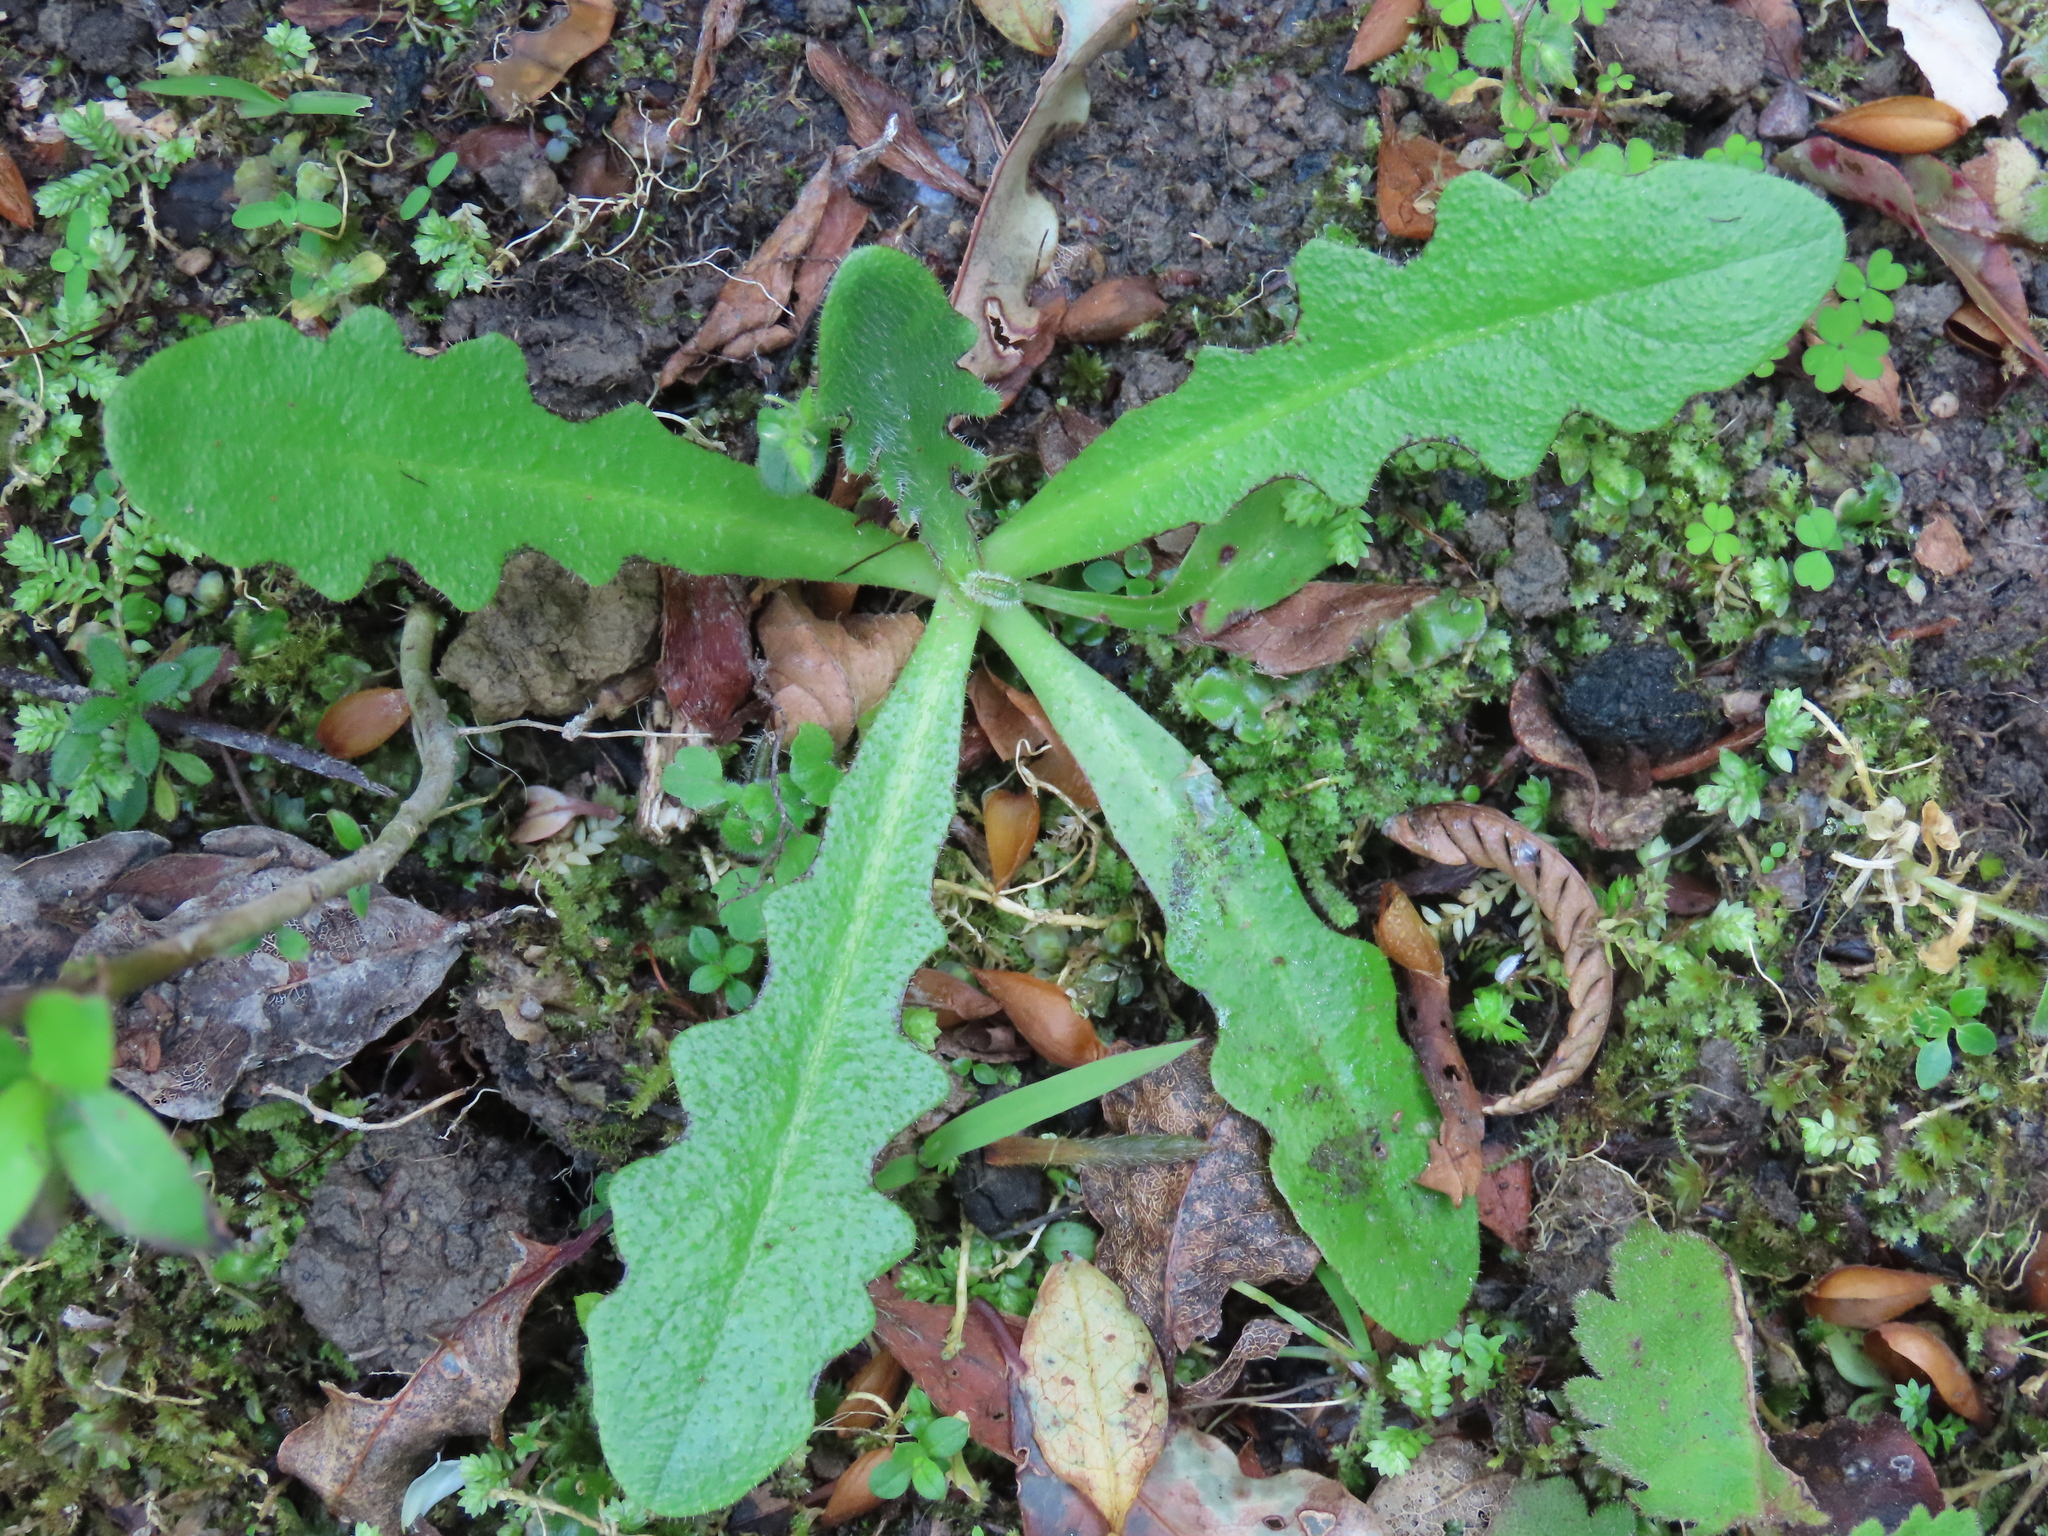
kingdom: Plantae
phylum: Tracheophyta
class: Magnoliopsida
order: Asterales
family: Asteraceae
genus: Hypochaeris
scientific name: Hypochaeris radicata
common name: Flatweed
